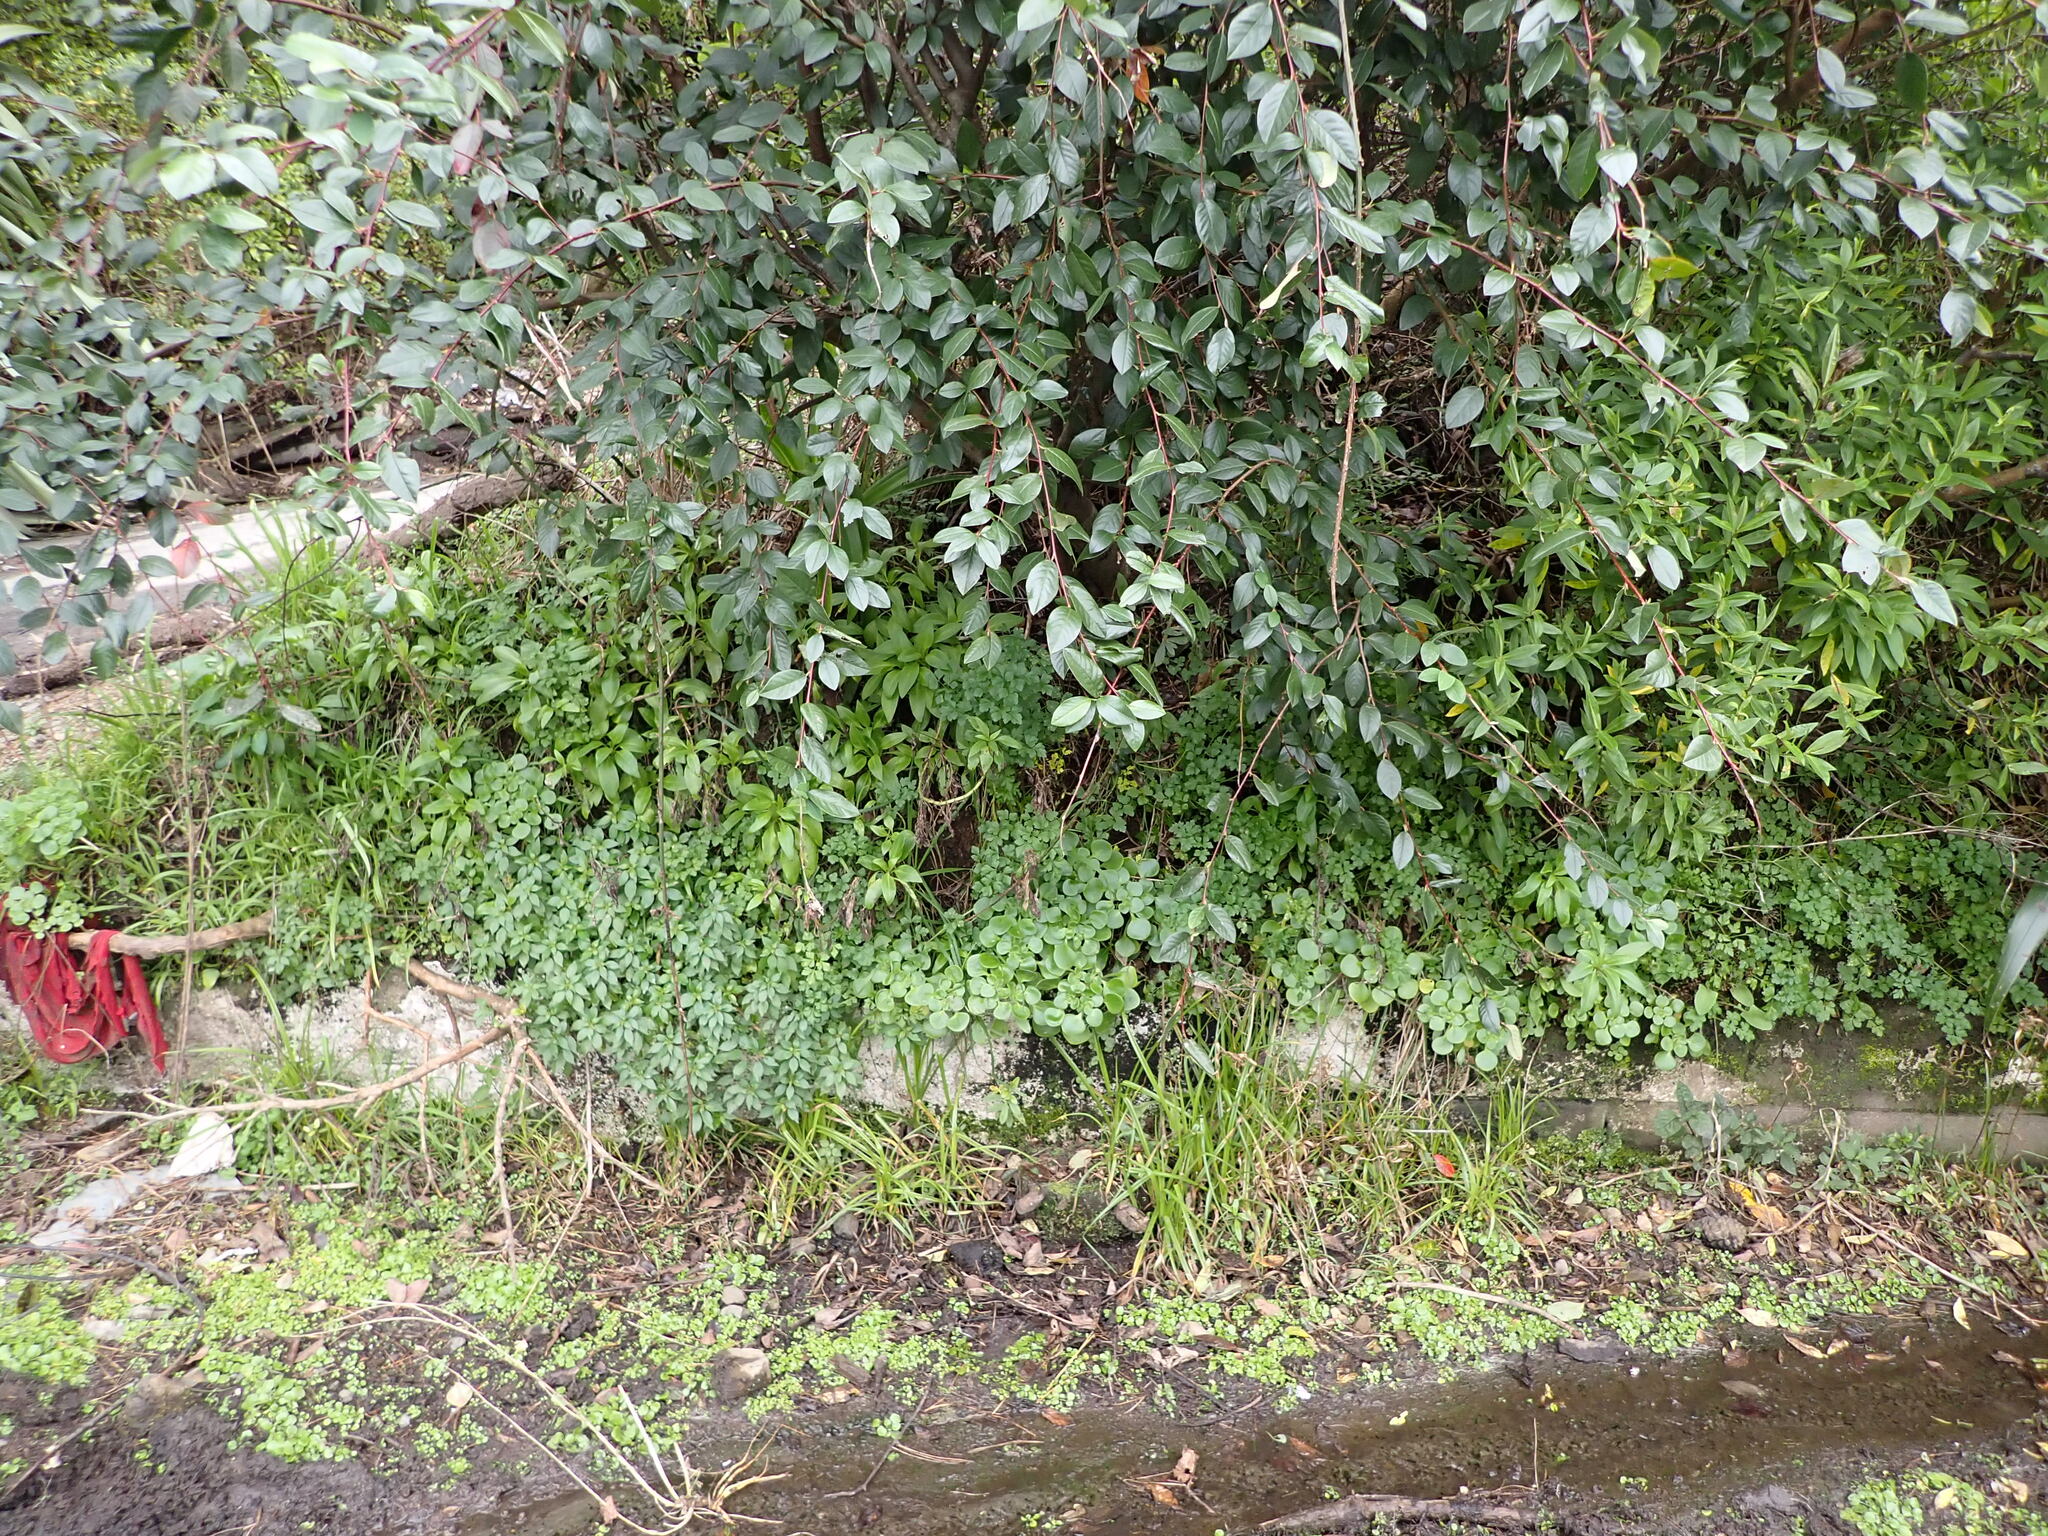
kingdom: Plantae
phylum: Tracheophyta
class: Magnoliopsida
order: Saxifragales
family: Crassulaceae
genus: Aichryson
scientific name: Aichryson laxum
